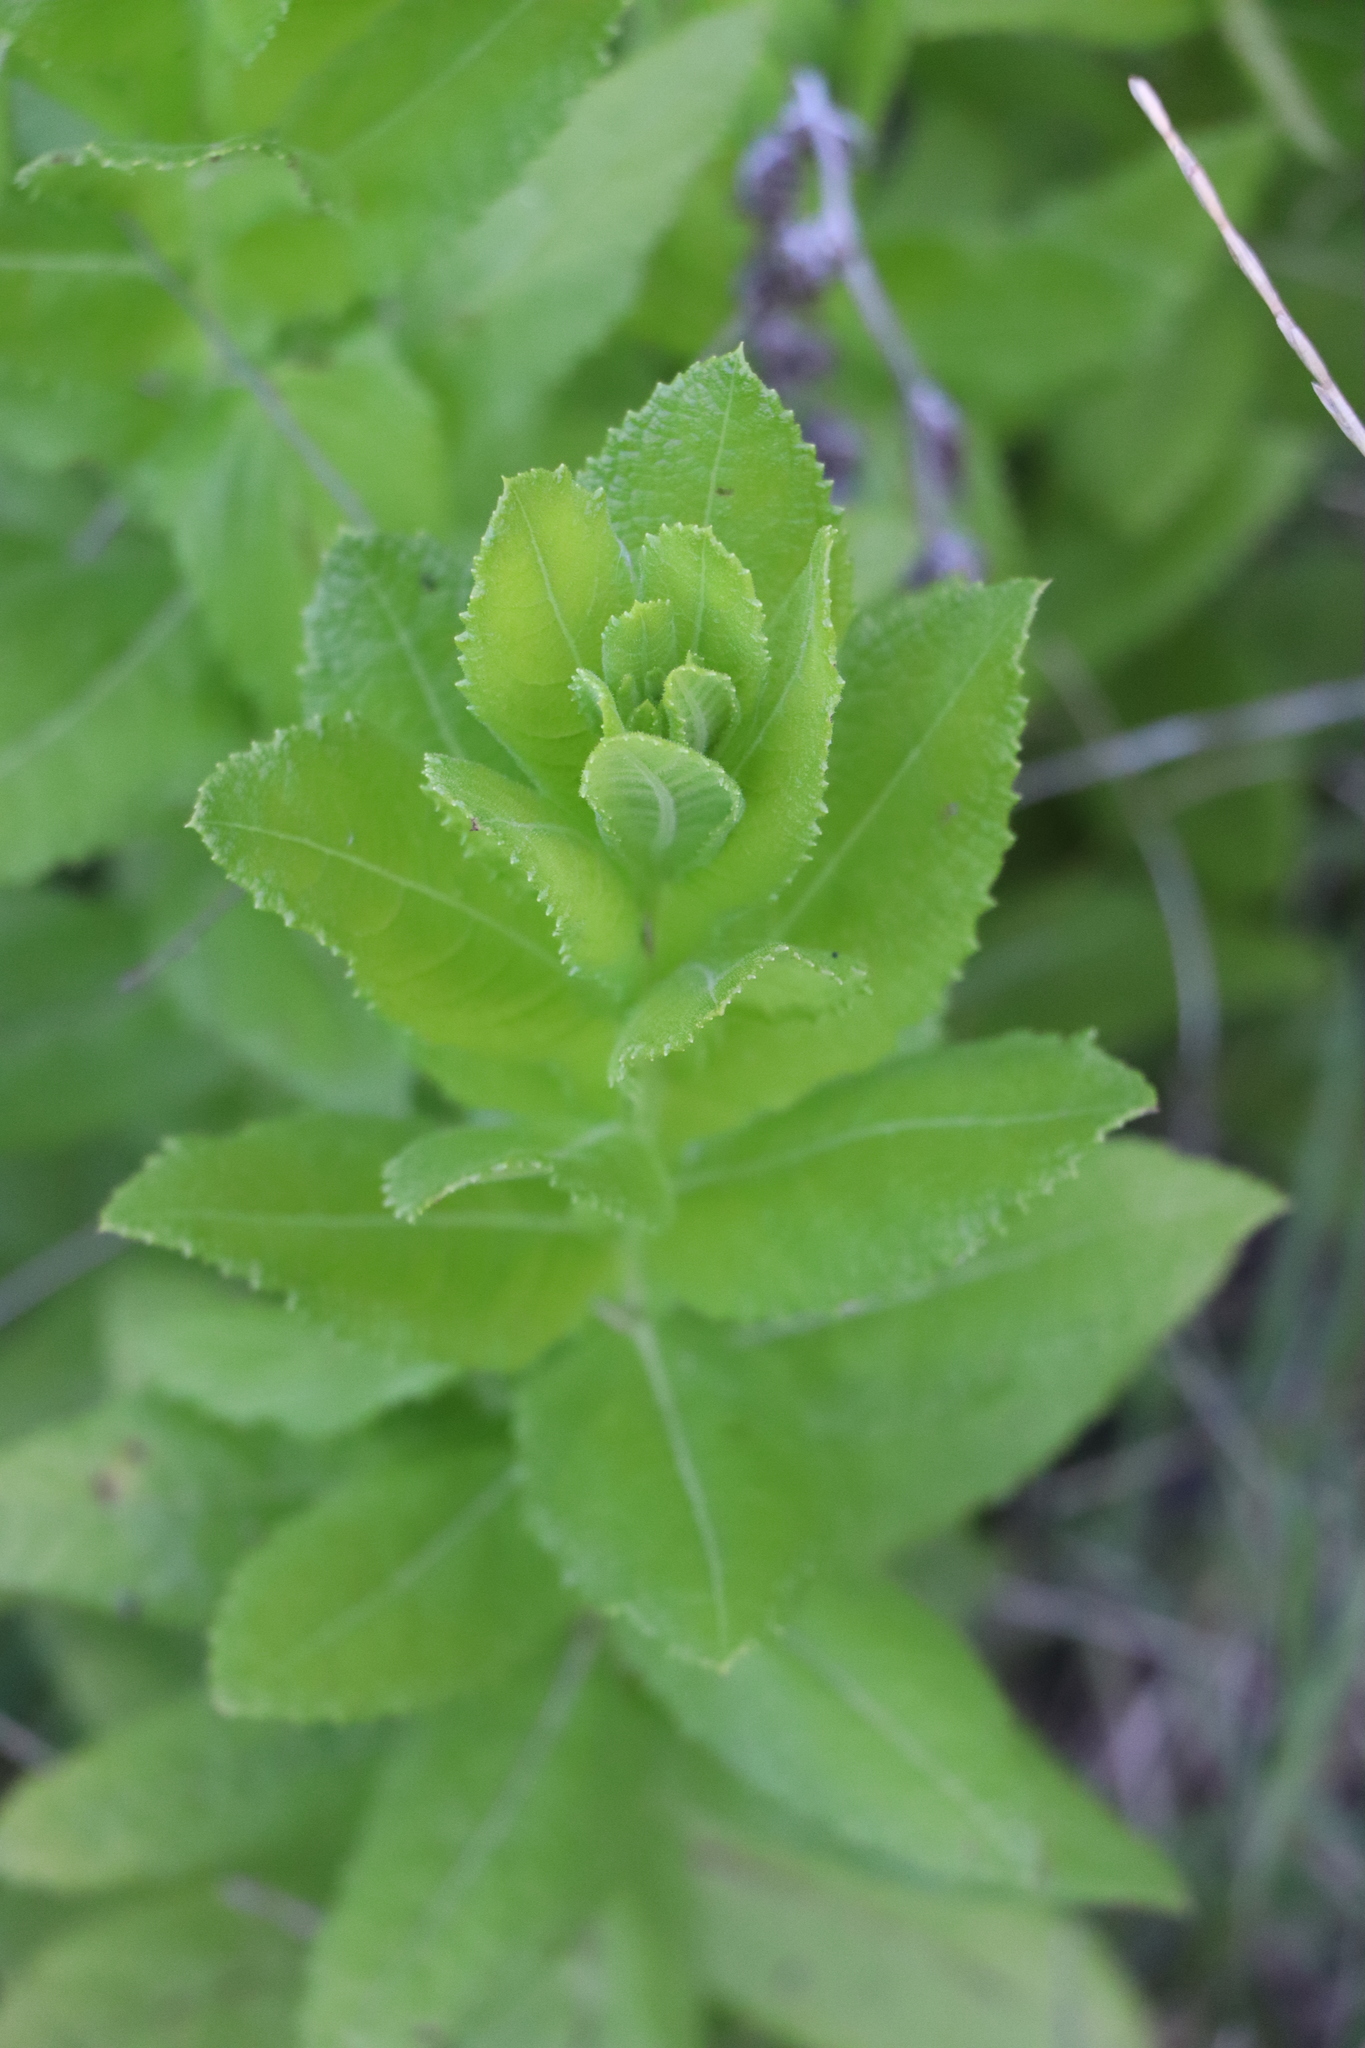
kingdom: Plantae
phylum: Tracheophyta
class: Magnoliopsida
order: Asterales
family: Asteraceae
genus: Pterocaulon
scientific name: Pterocaulon polystachyum
